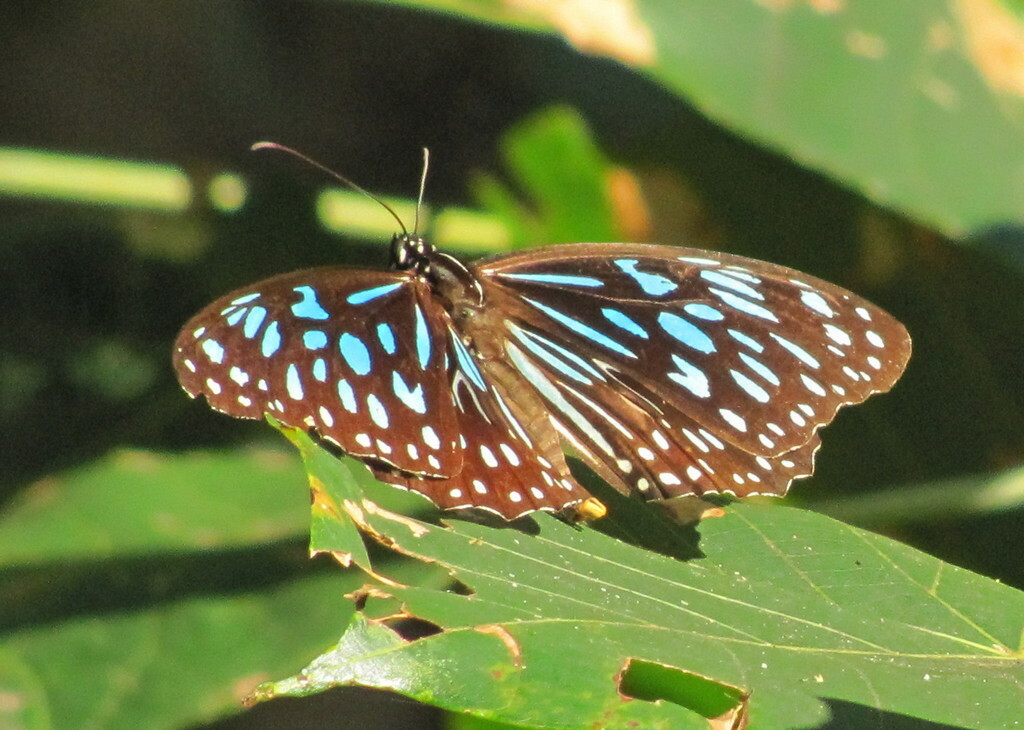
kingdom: Animalia
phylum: Arthropoda
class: Insecta
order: Lepidoptera
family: Nymphalidae
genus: Tirumala
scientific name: Tirumala hamata
